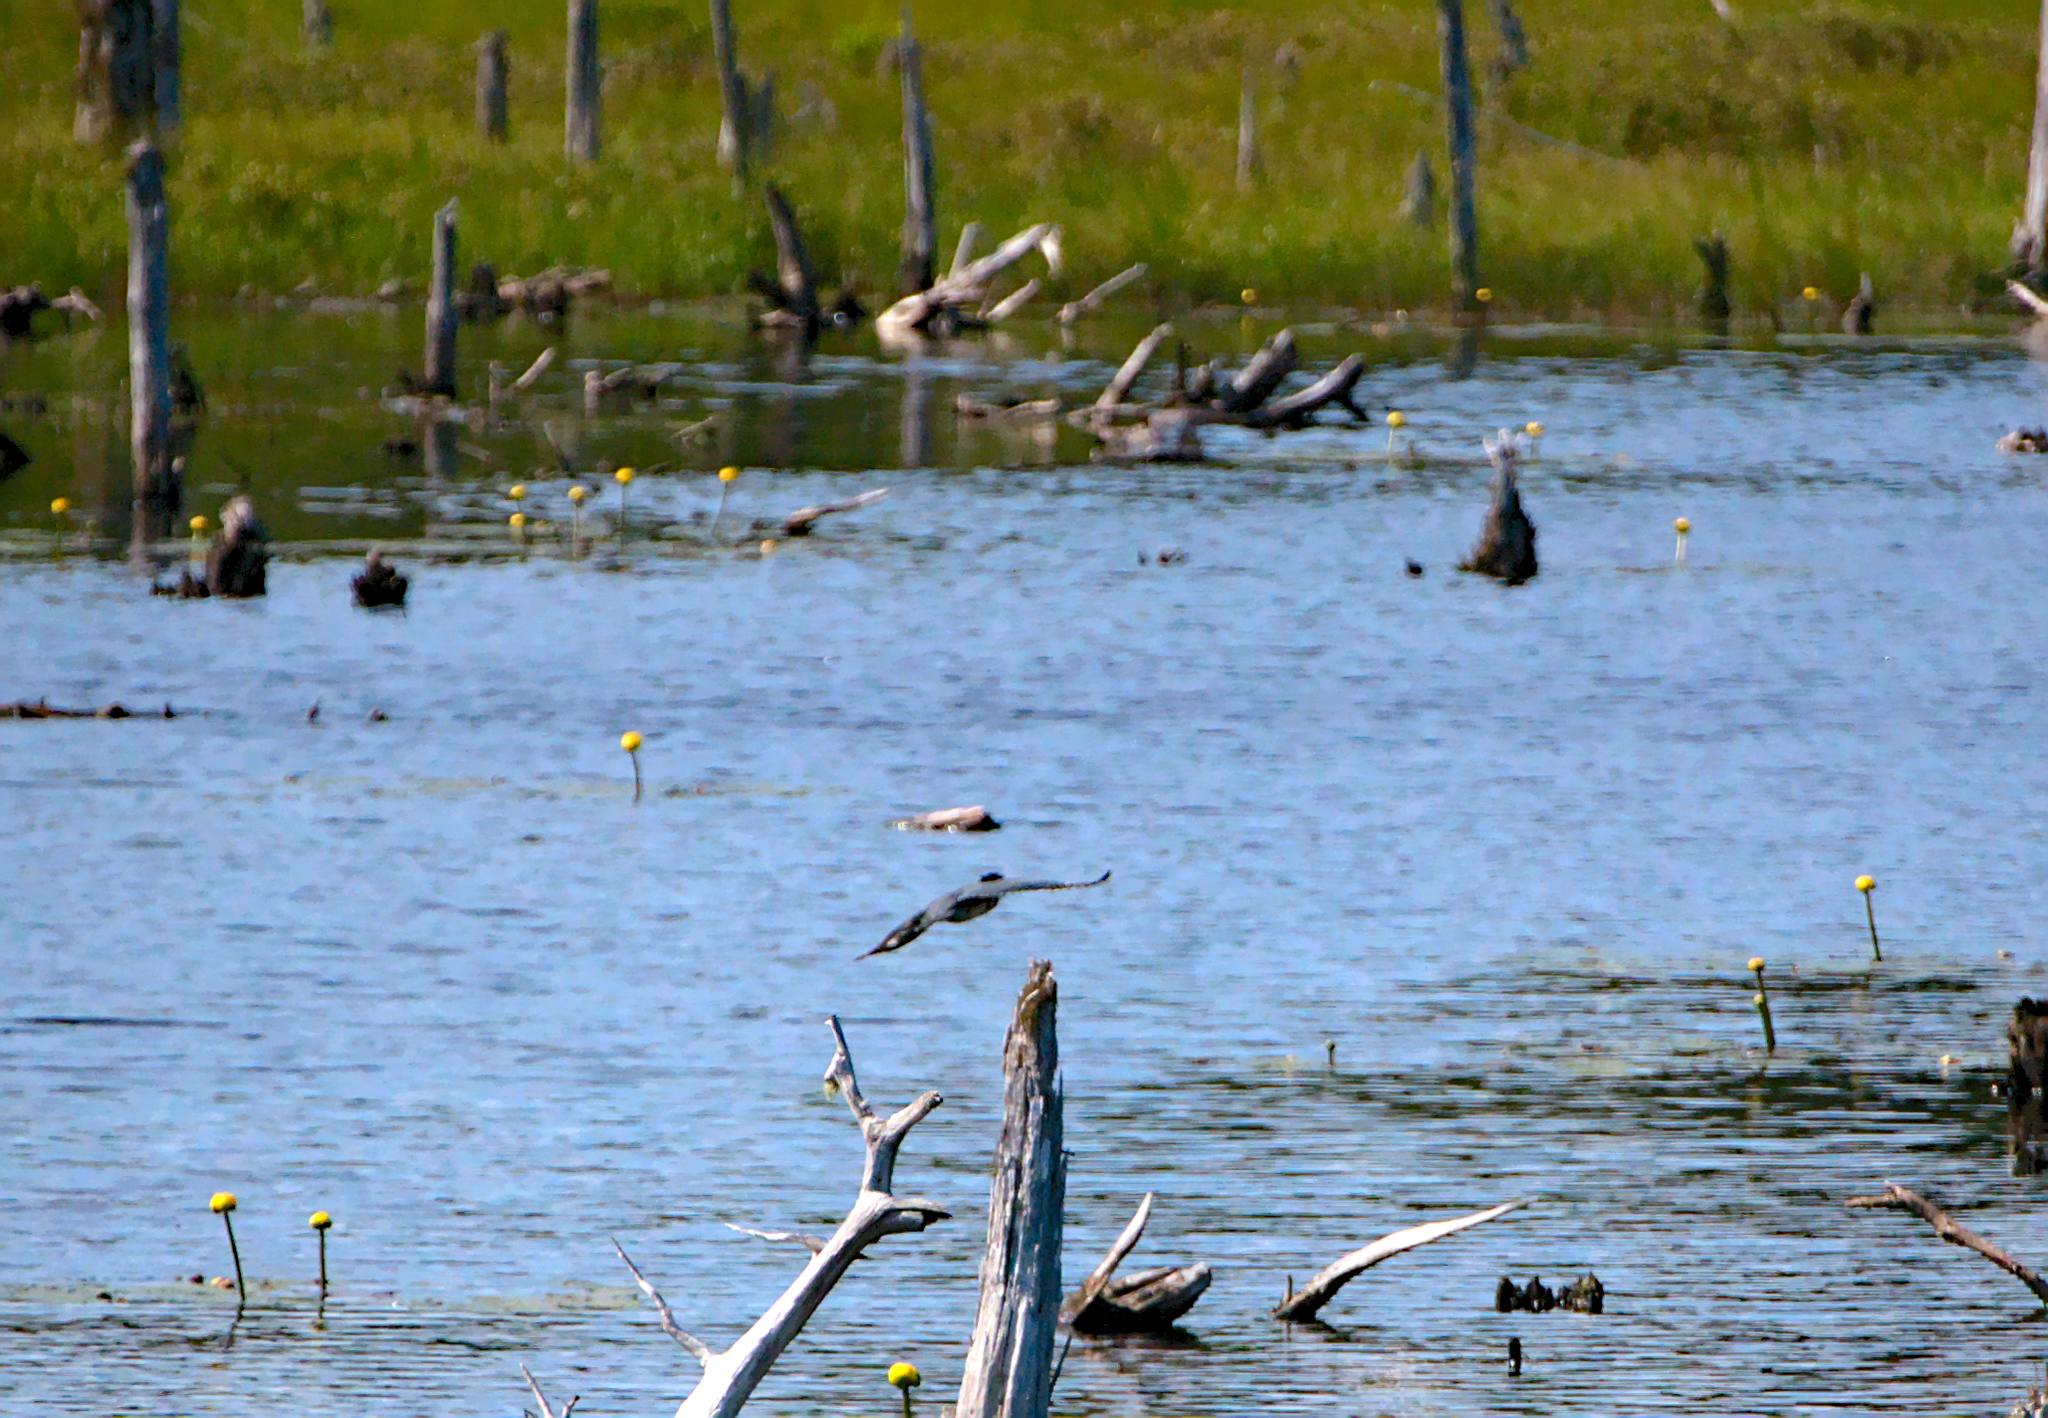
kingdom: Animalia
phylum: Chordata
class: Aves
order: Coraciiformes
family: Alcedinidae
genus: Megaceryle
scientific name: Megaceryle alcyon
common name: Belted kingfisher
